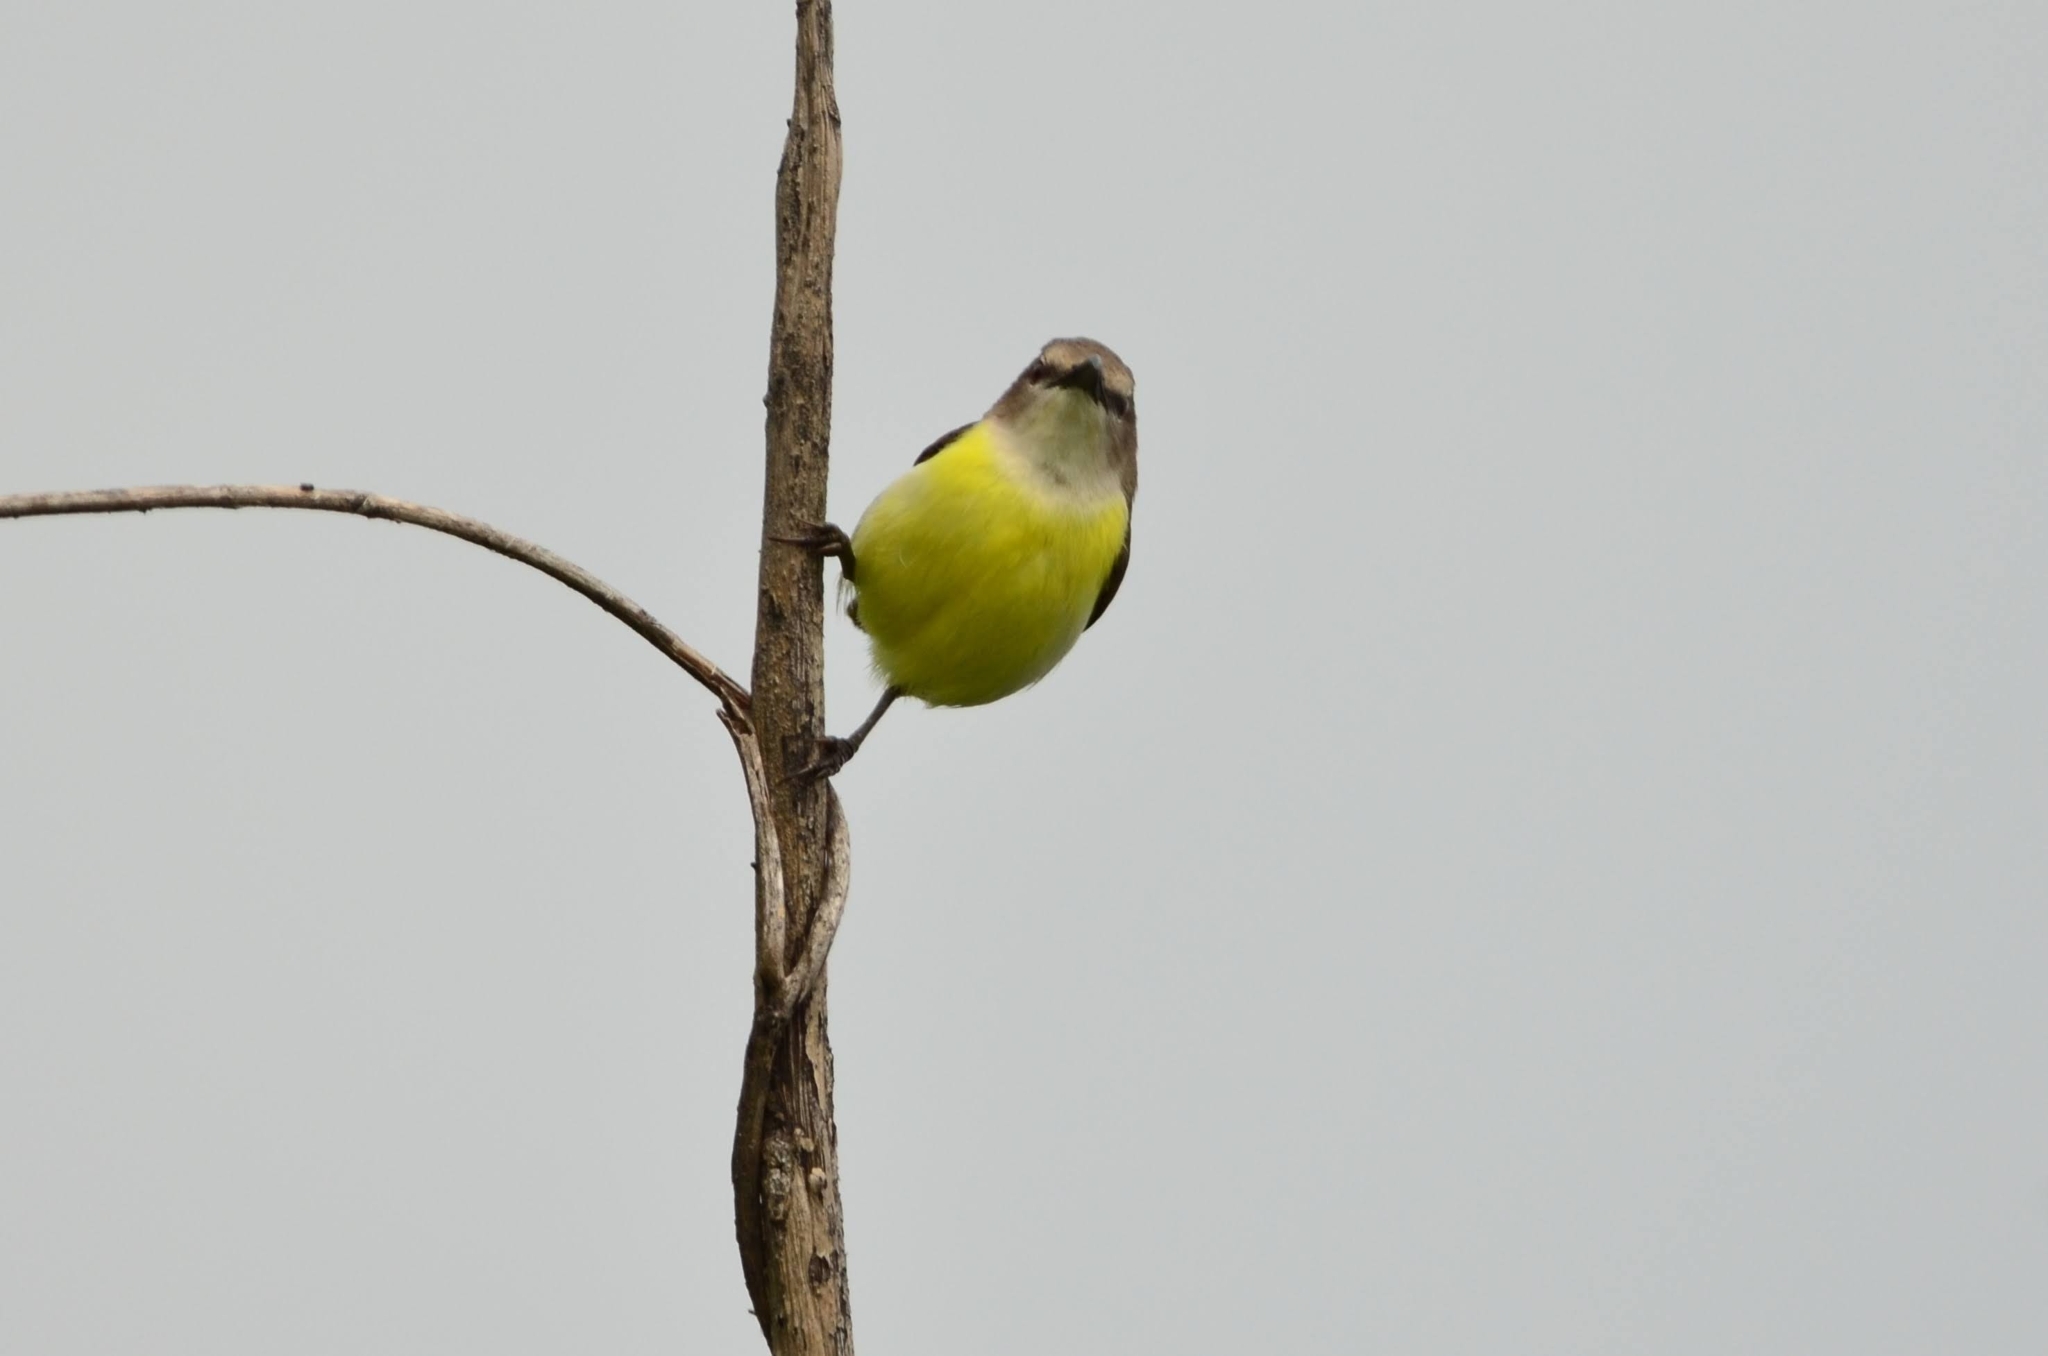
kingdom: Animalia
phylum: Chordata
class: Aves
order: Passeriformes
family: Nectariniidae
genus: Leptocoma
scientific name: Leptocoma zeylonica
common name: Purple-rumped sunbird
